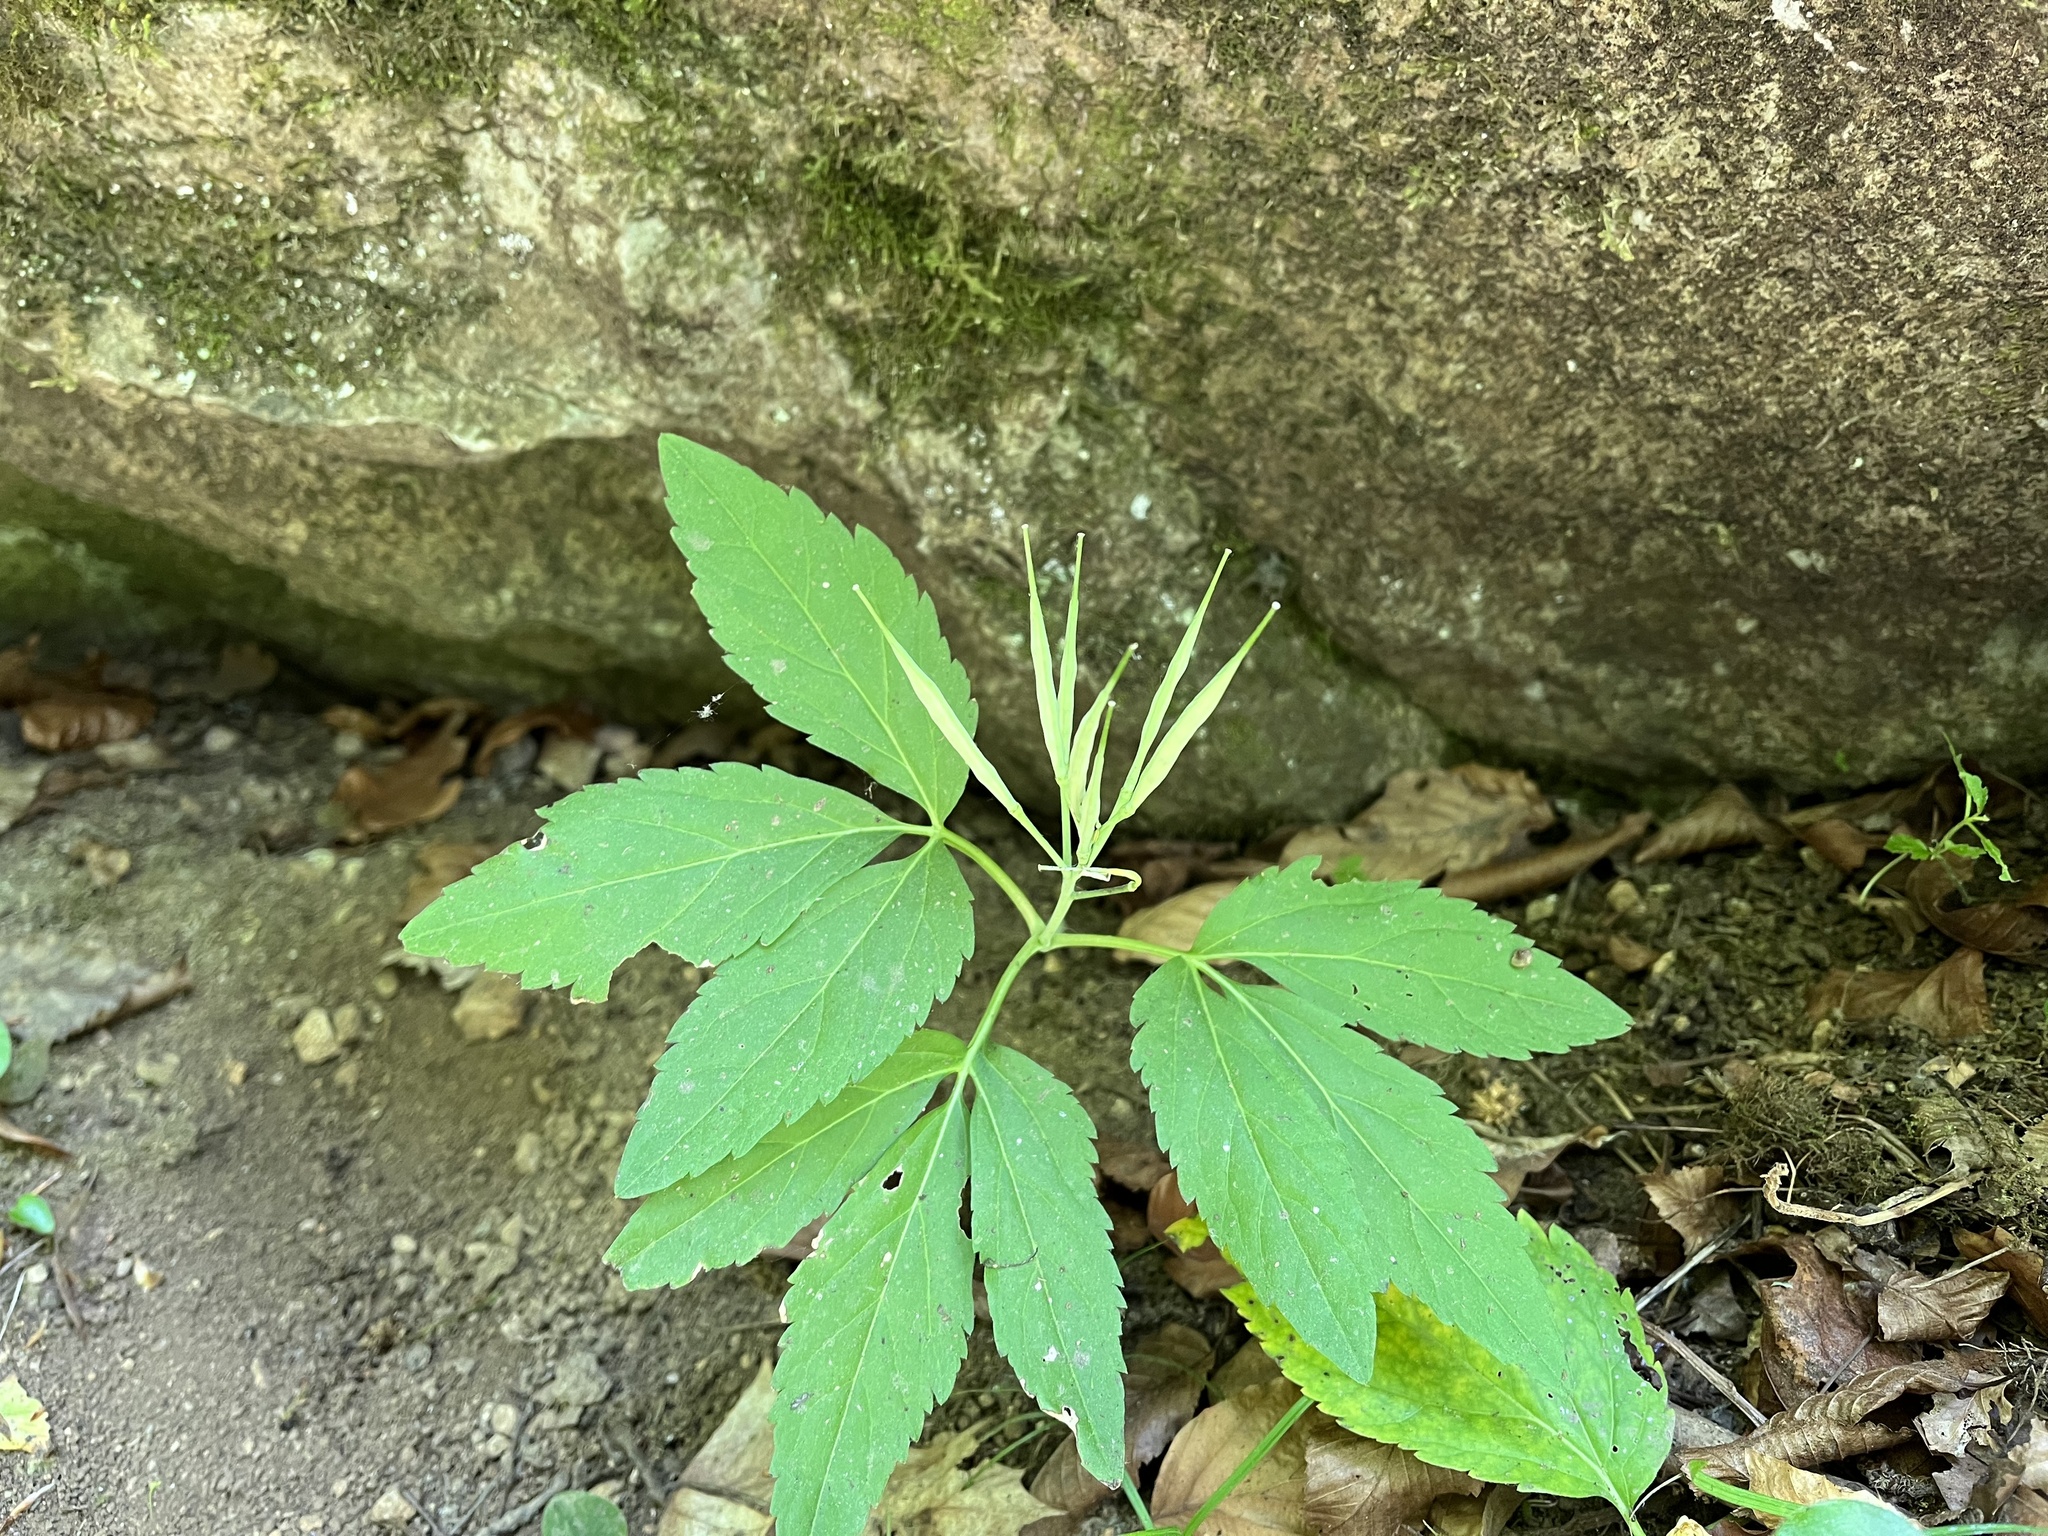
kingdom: Plantae
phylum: Tracheophyta
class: Magnoliopsida
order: Brassicales
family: Brassicaceae
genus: Cardamine
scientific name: Cardamine enneaphyllos
